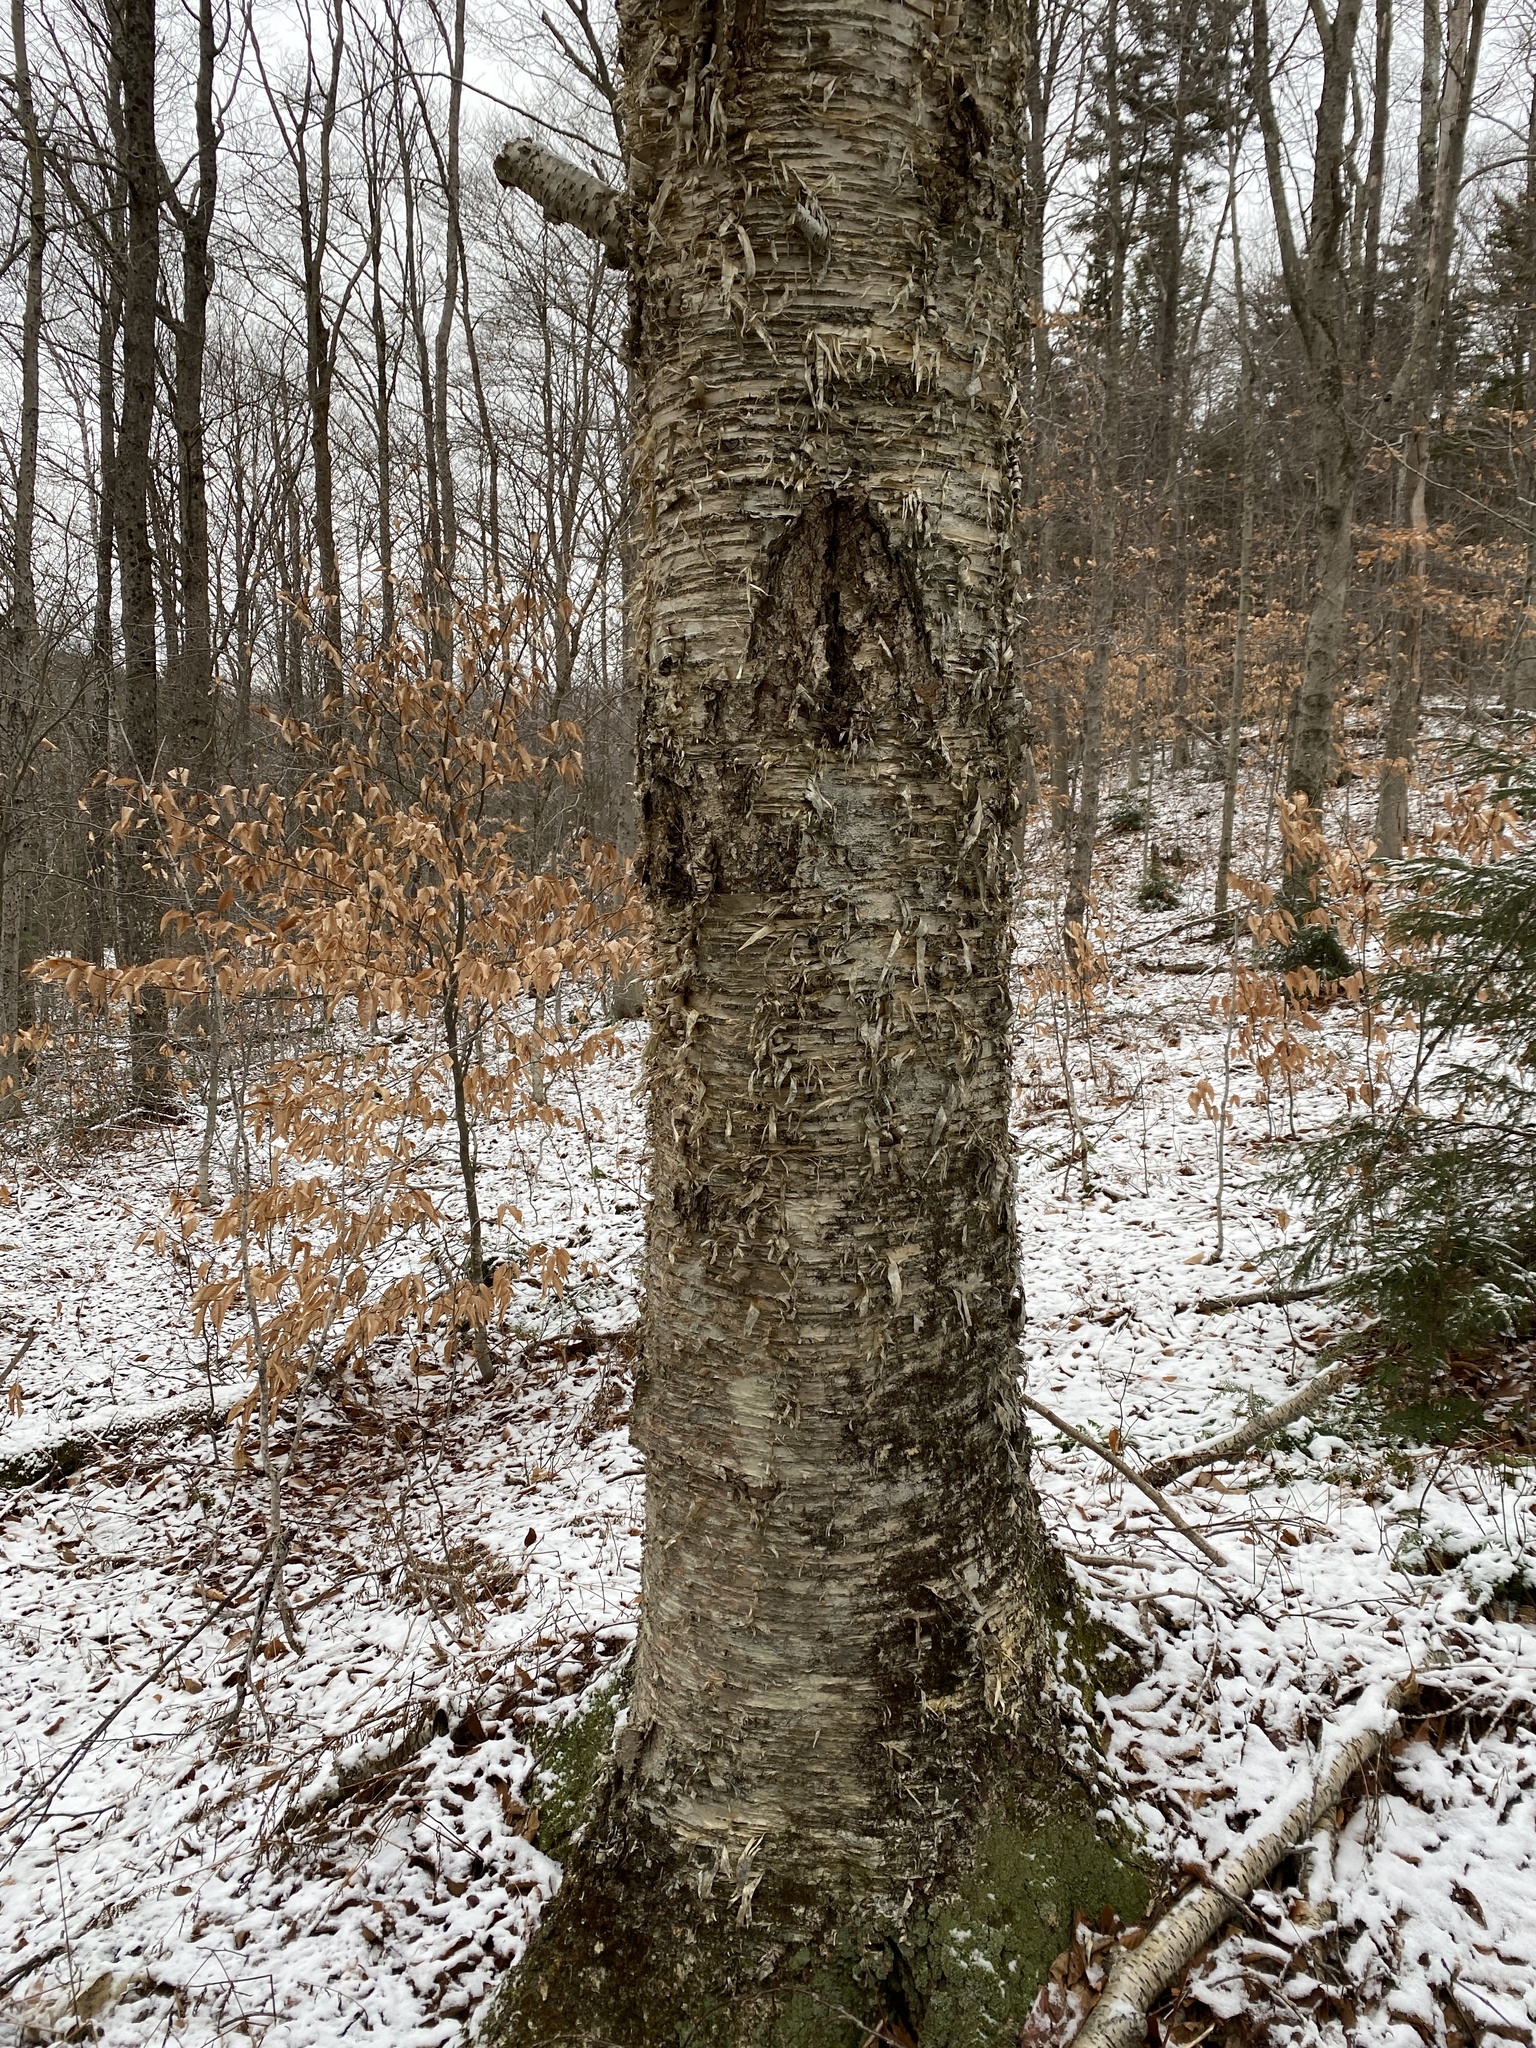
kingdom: Plantae
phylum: Tracheophyta
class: Magnoliopsida
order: Fagales
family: Betulaceae
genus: Betula
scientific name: Betula alleghaniensis
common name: Yellow birch
